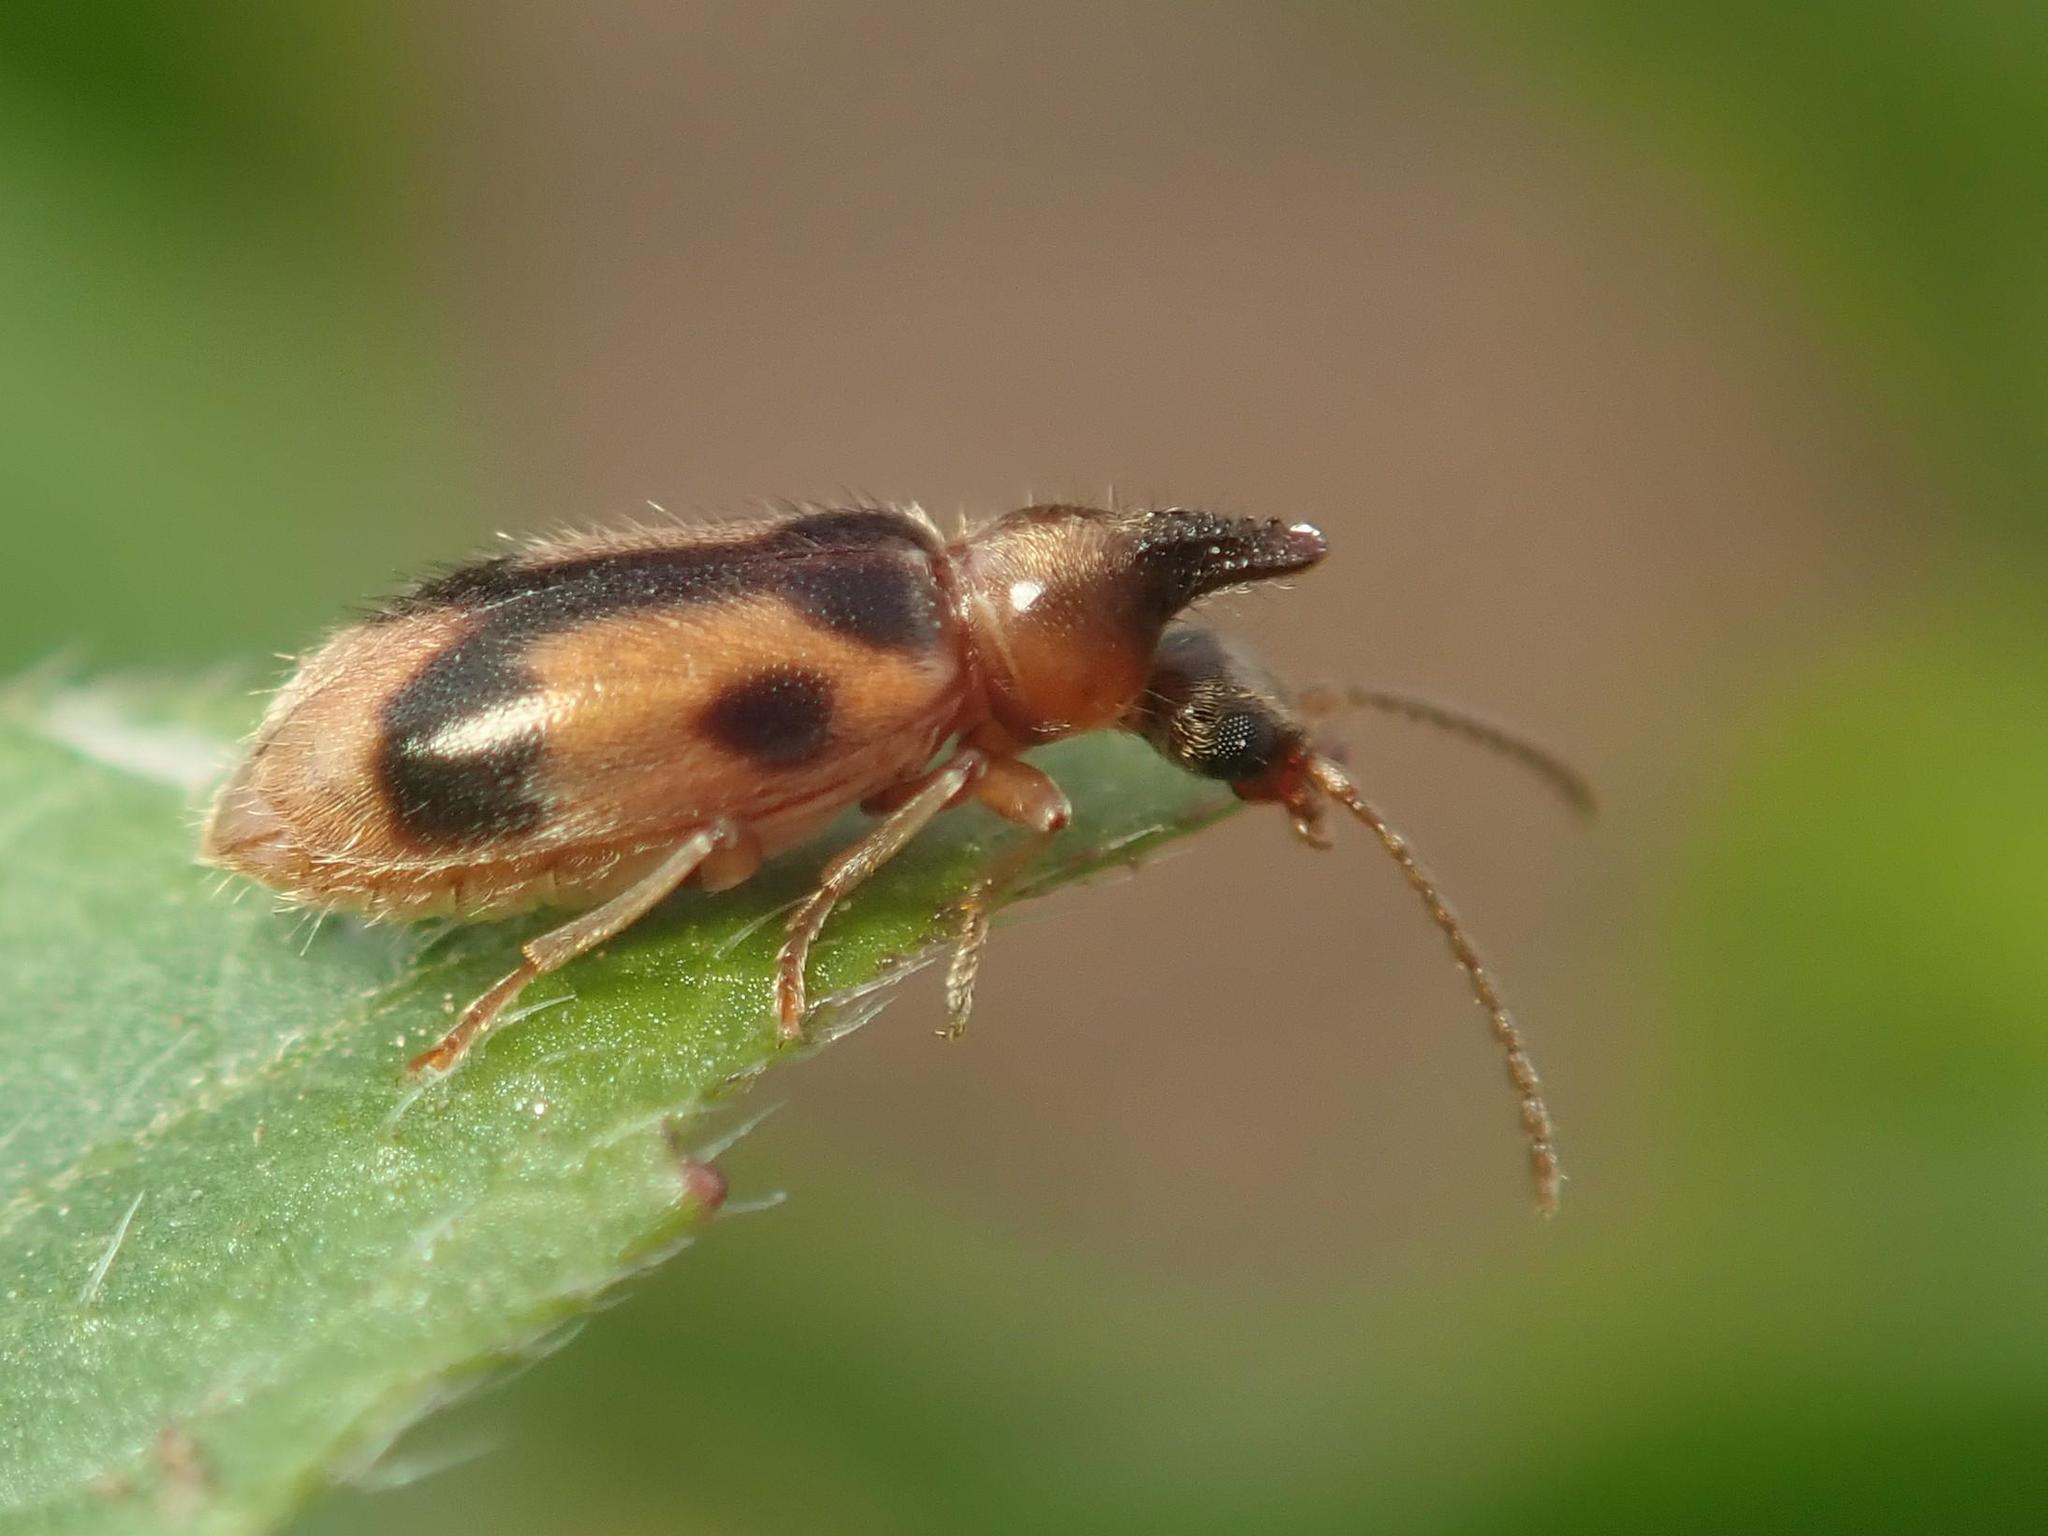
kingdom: Animalia
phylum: Arthropoda
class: Insecta
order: Coleoptera
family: Anthicidae
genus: Notoxus
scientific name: Notoxus monoceros
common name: Monoceros beetle
